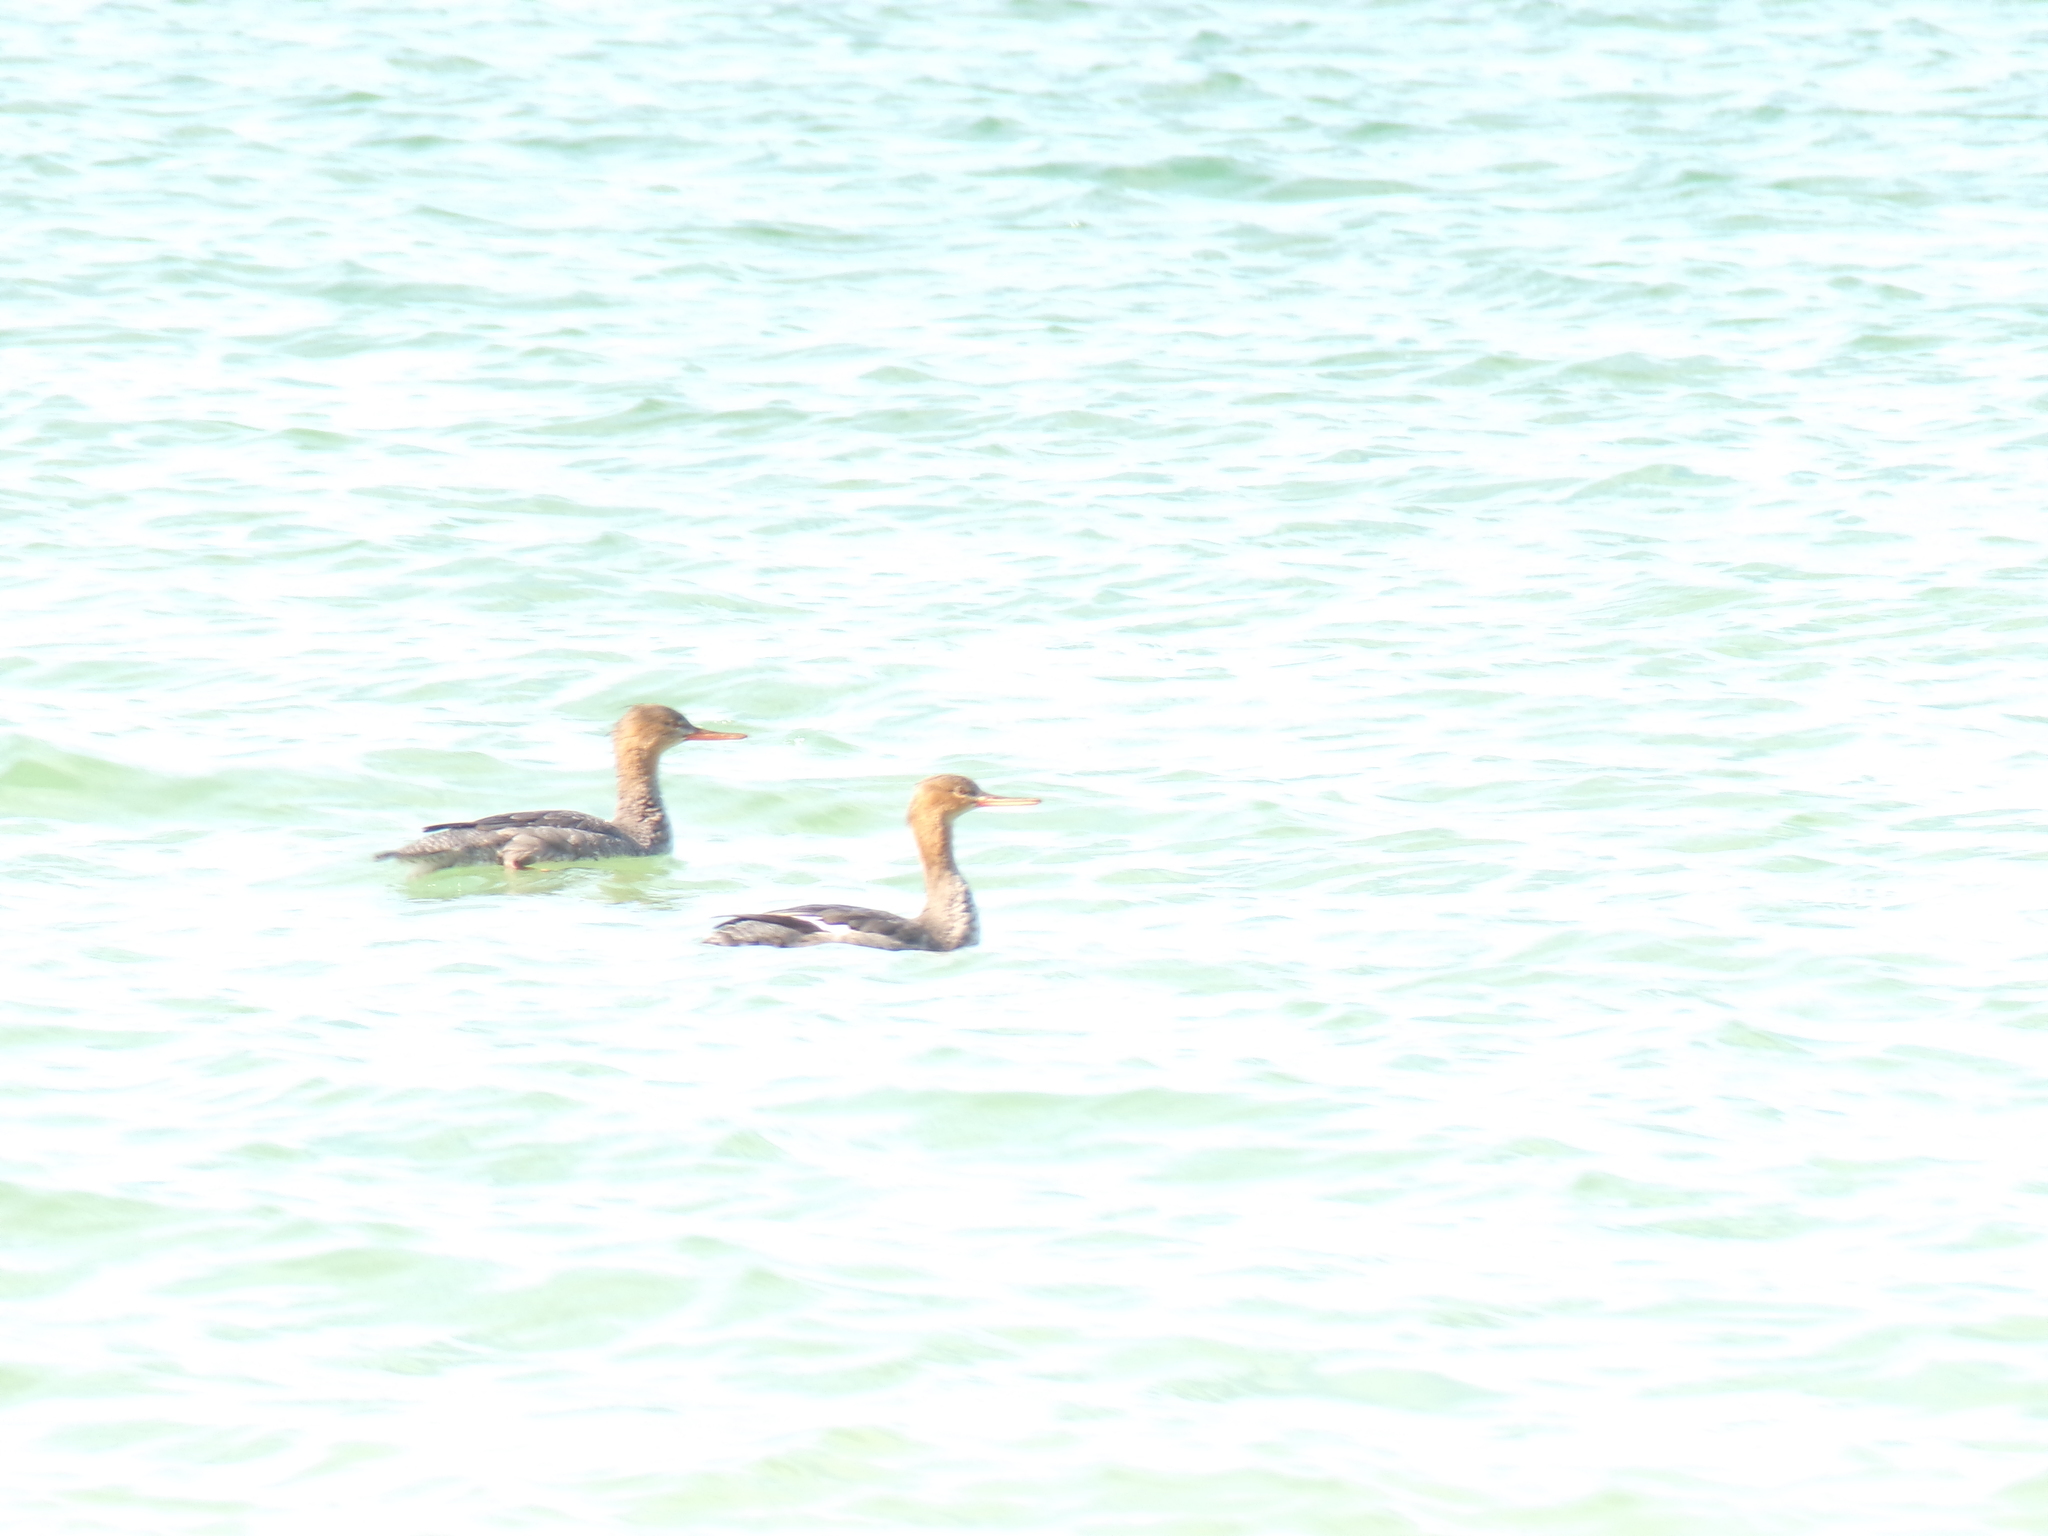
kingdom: Animalia
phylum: Chordata
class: Aves
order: Anseriformes
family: Anatidae
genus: Mergus
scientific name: Mergus serrator
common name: Red-breasted merganser
